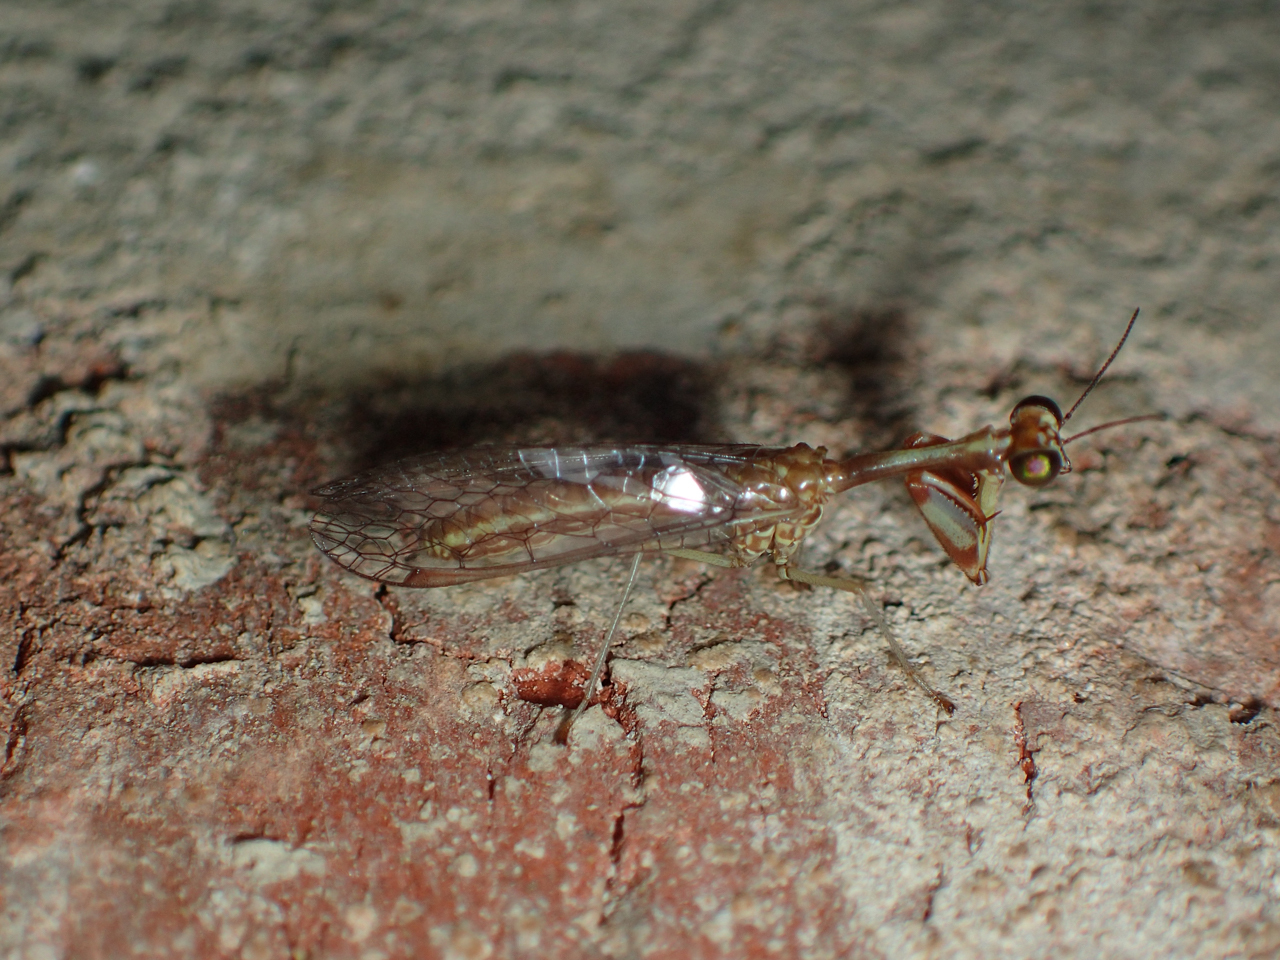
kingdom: Animalia
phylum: Arthropoda
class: Insecta
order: Neuroptera
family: Mantispidae
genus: Leptomantispa
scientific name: Leptomantispa pulchella
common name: Stevens's mantidfly
